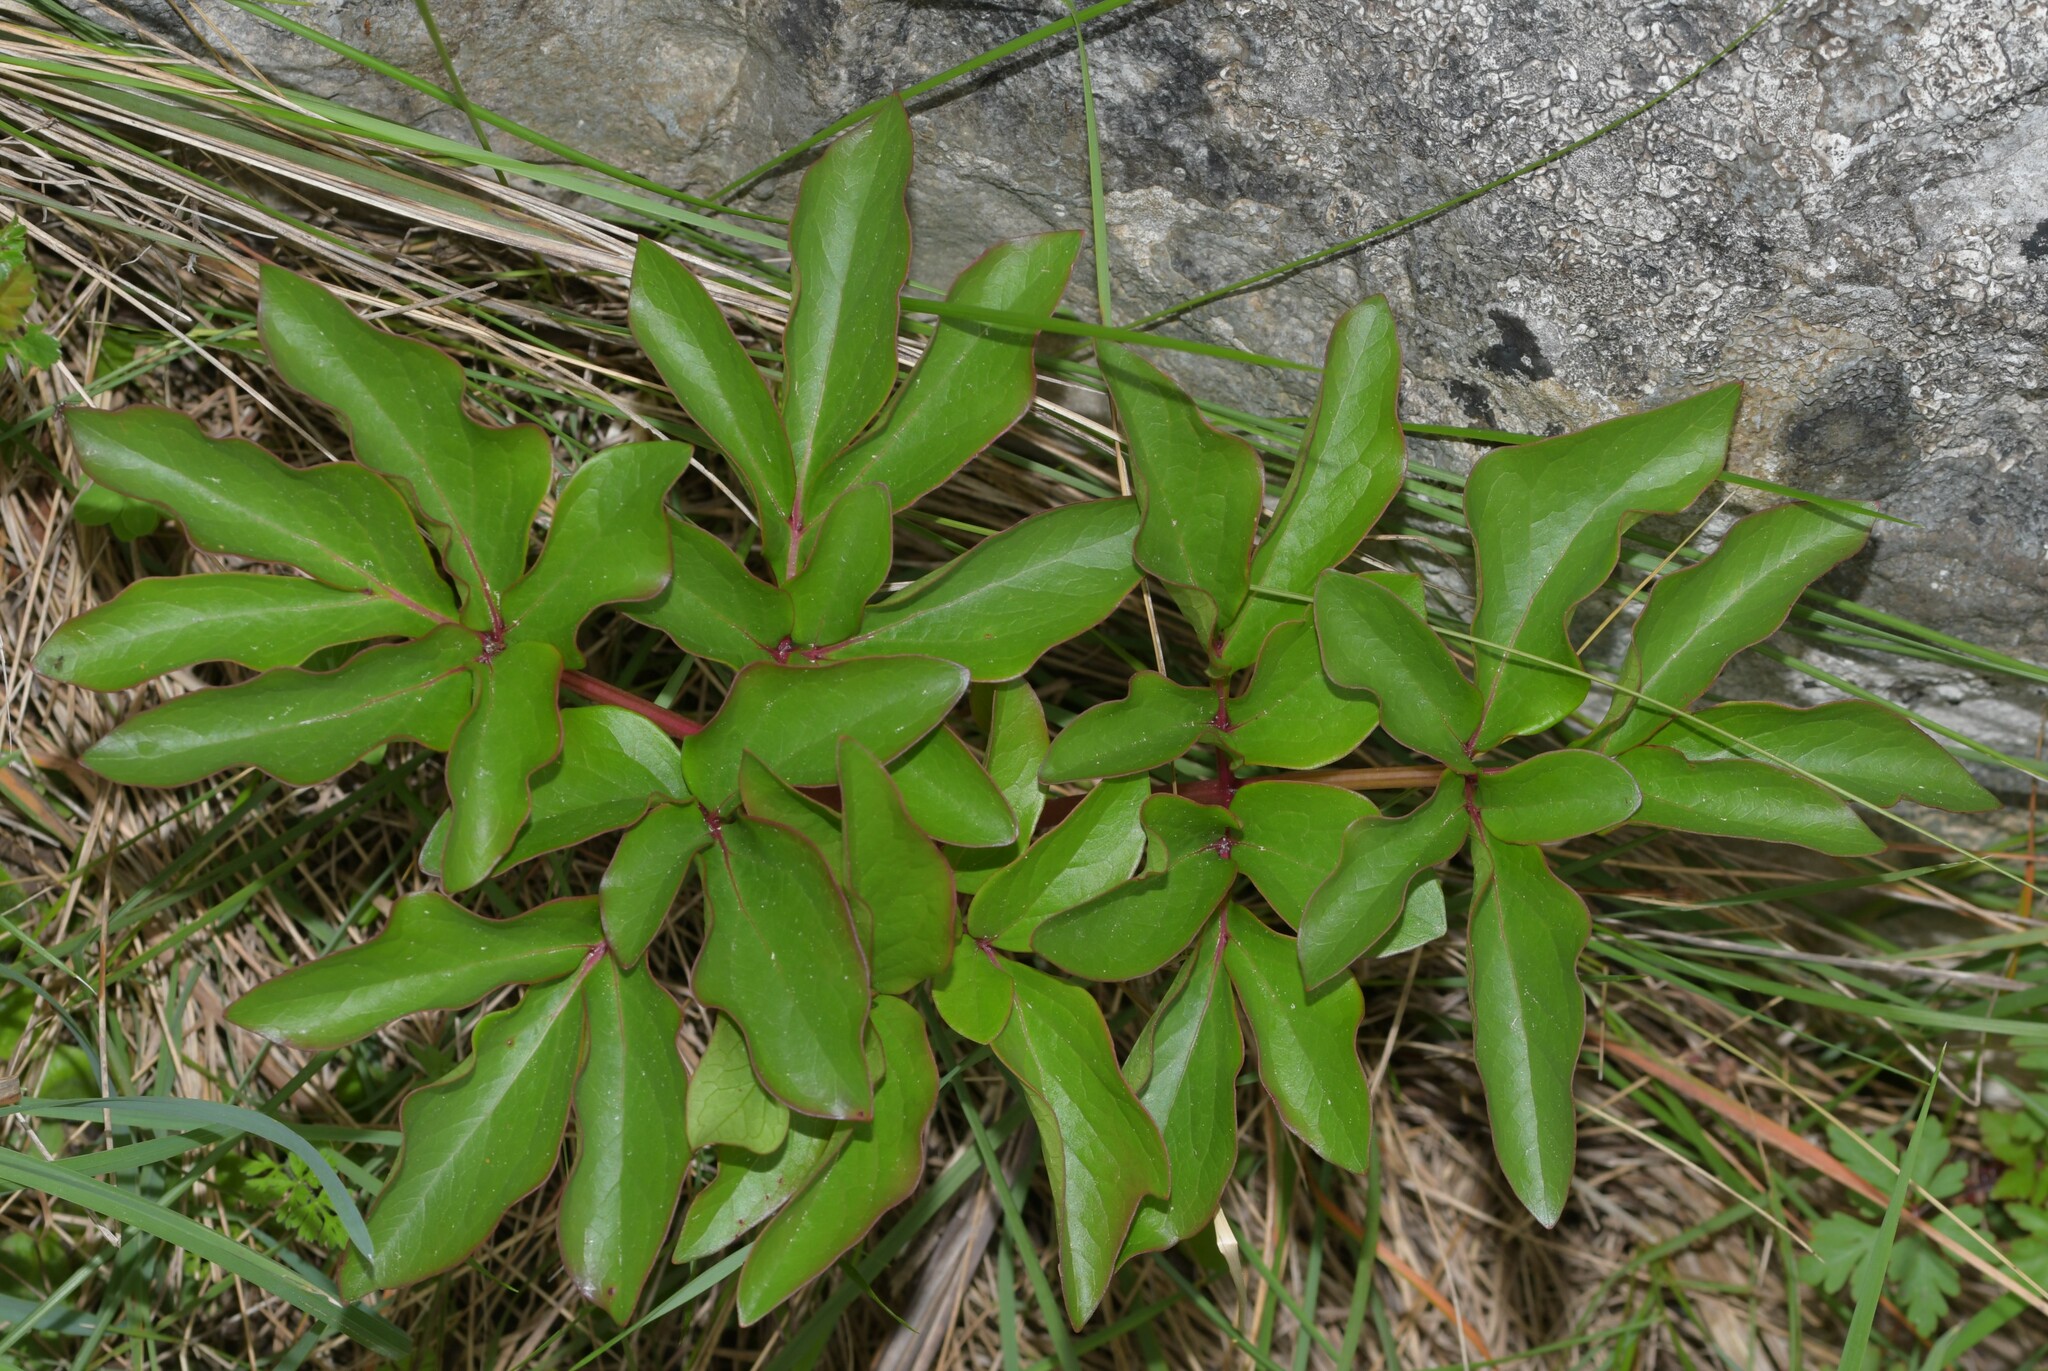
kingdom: Plantae
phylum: Tracheophyta
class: Magnoliopsida
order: Saxifragales
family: Paeoniaceae
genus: Paeonia
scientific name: Paeonia broteroi
